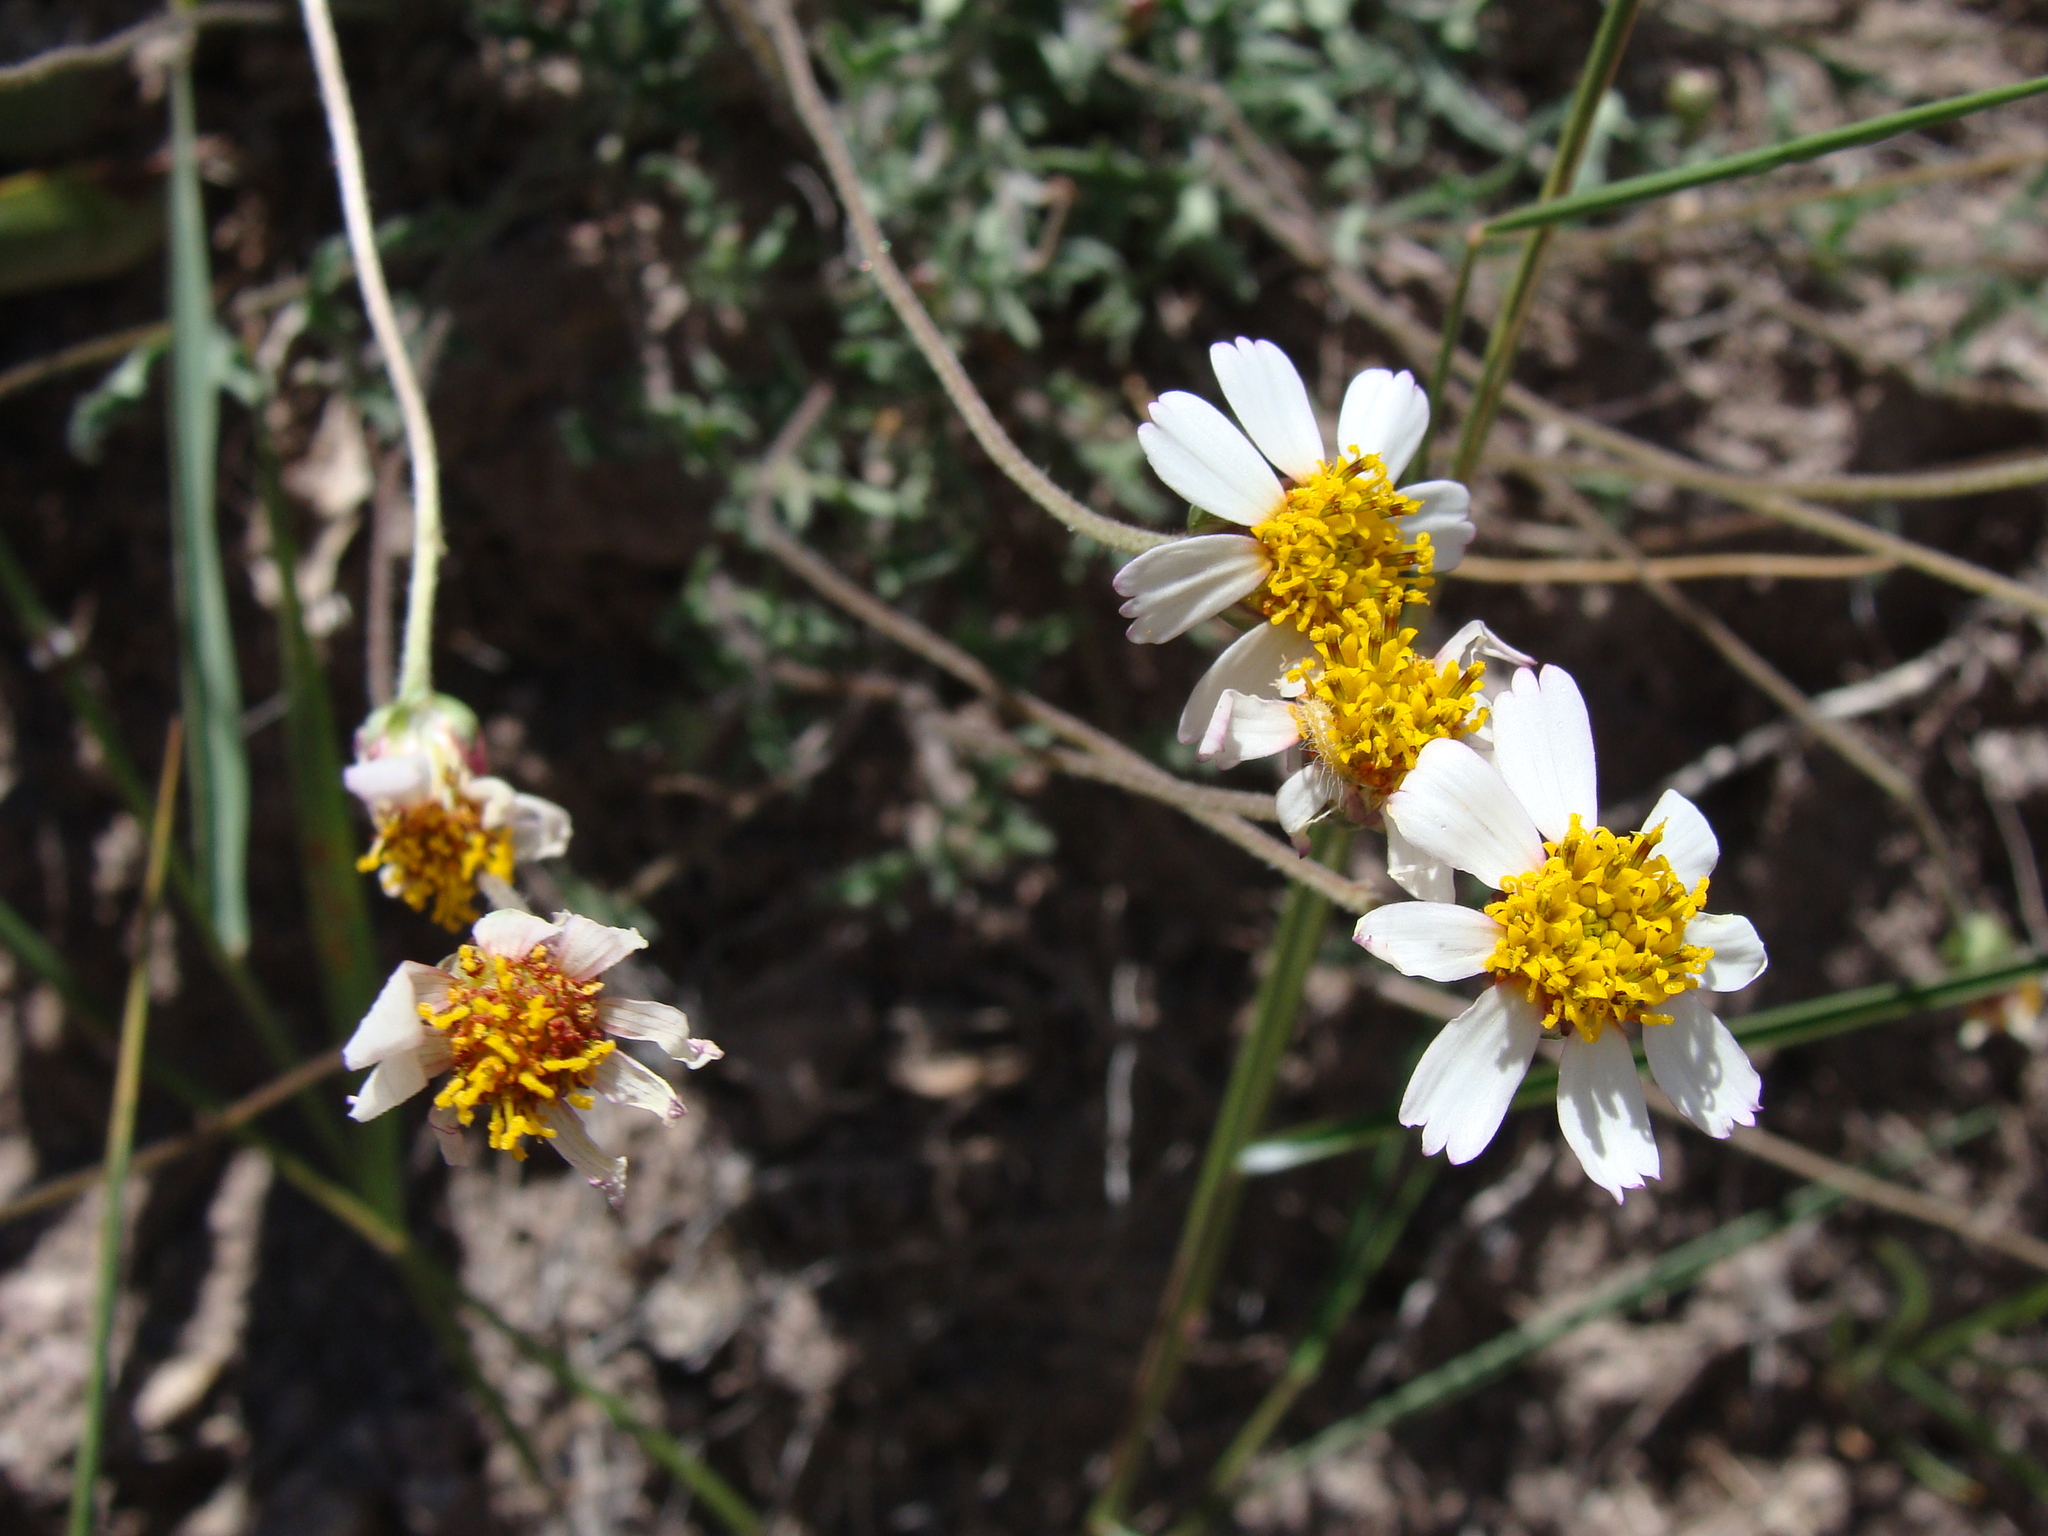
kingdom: Plantae
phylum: Tracheophyta
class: Magnoliopsida
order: Asterales
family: Asteraceae
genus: Tridax
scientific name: Tridax rosea
